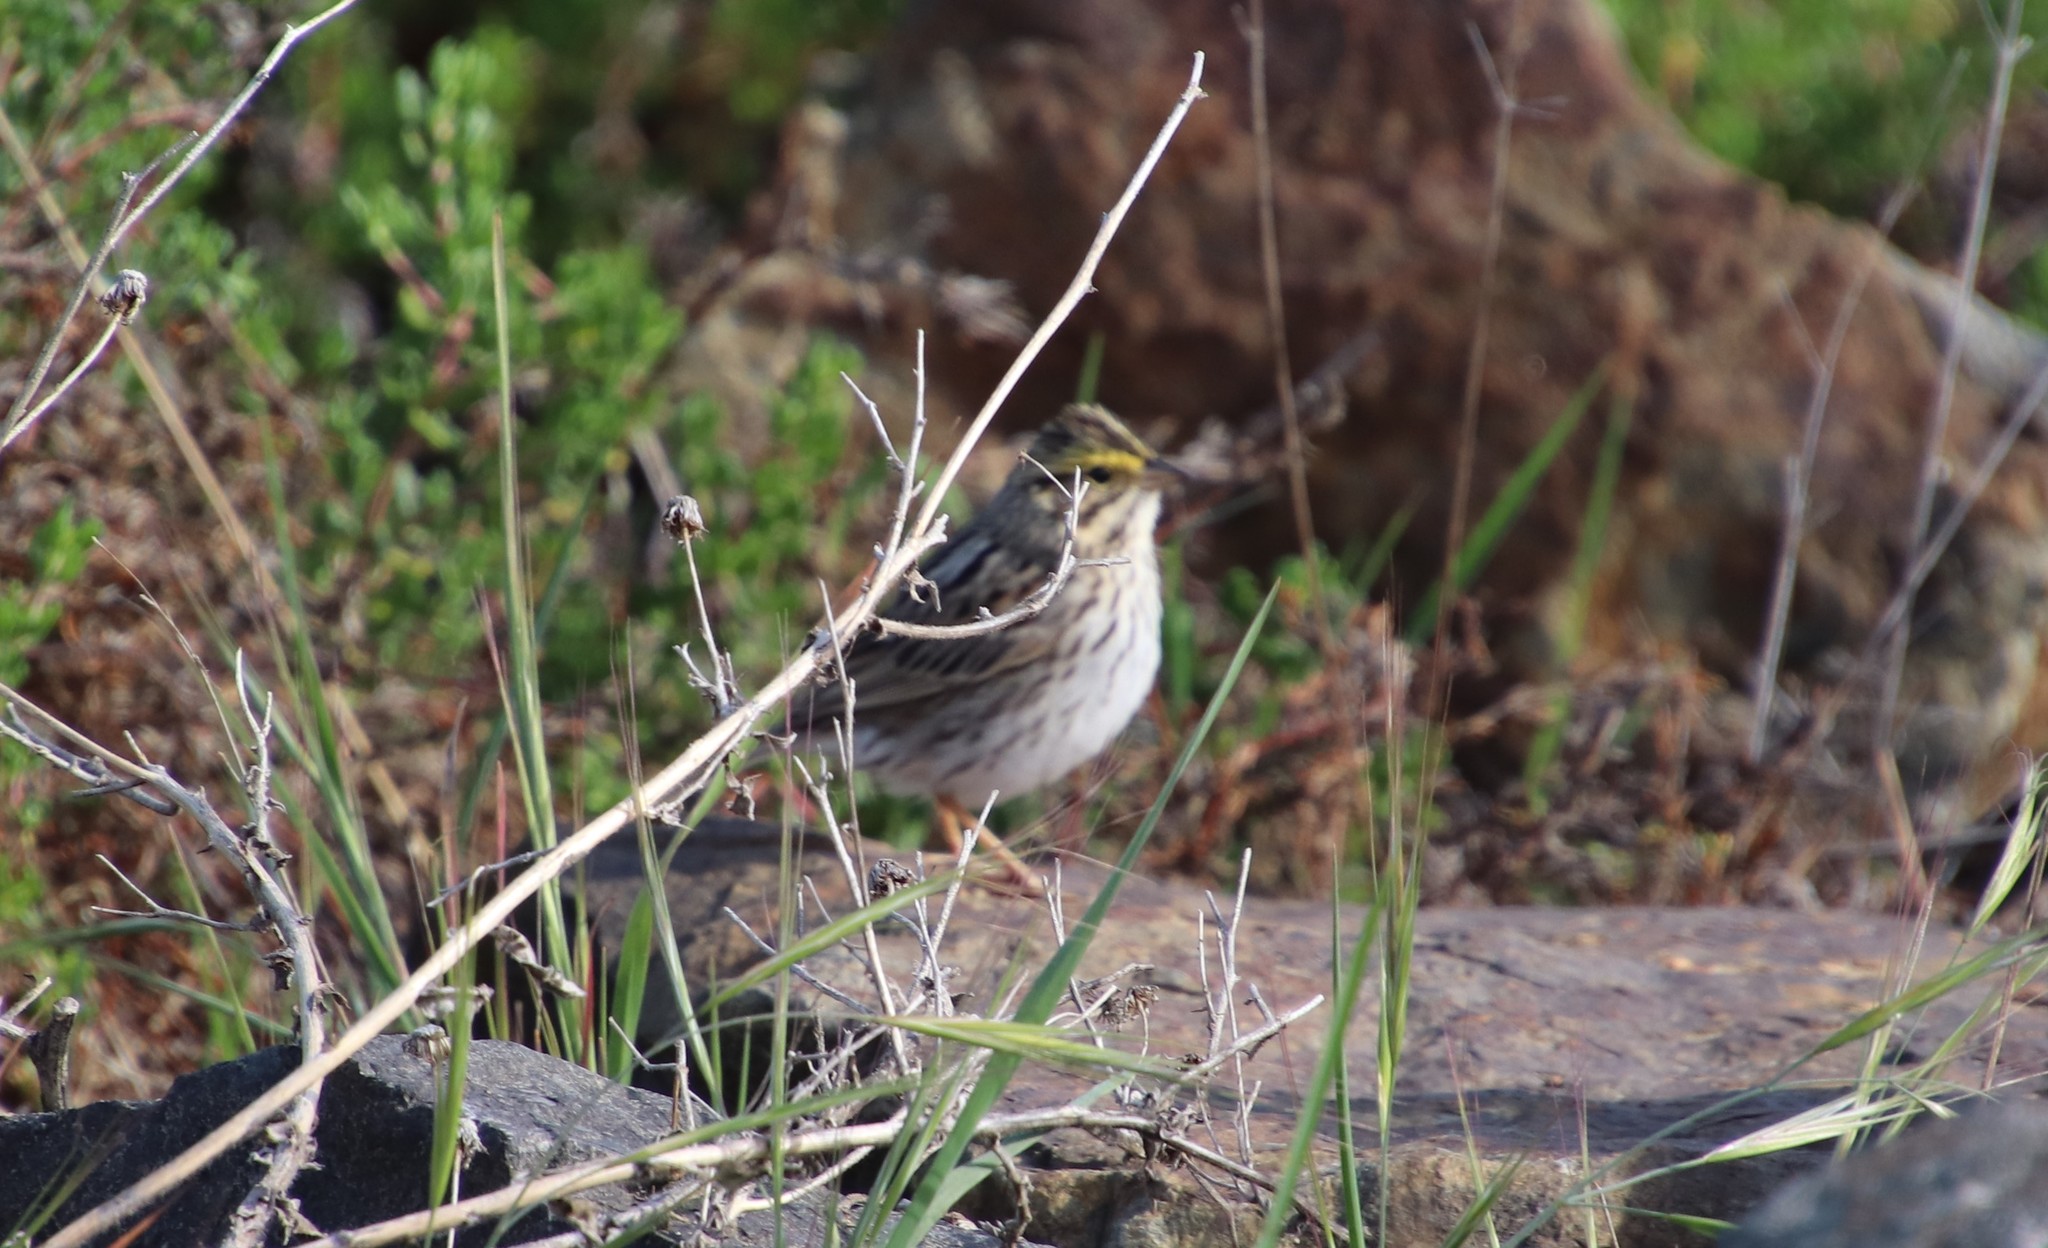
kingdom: Animalia
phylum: Chordata
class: Aves
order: Passeriformes
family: Passerellidae
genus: Passerculus
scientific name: Passerculus sandwichensis
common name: Savannah sparrow
